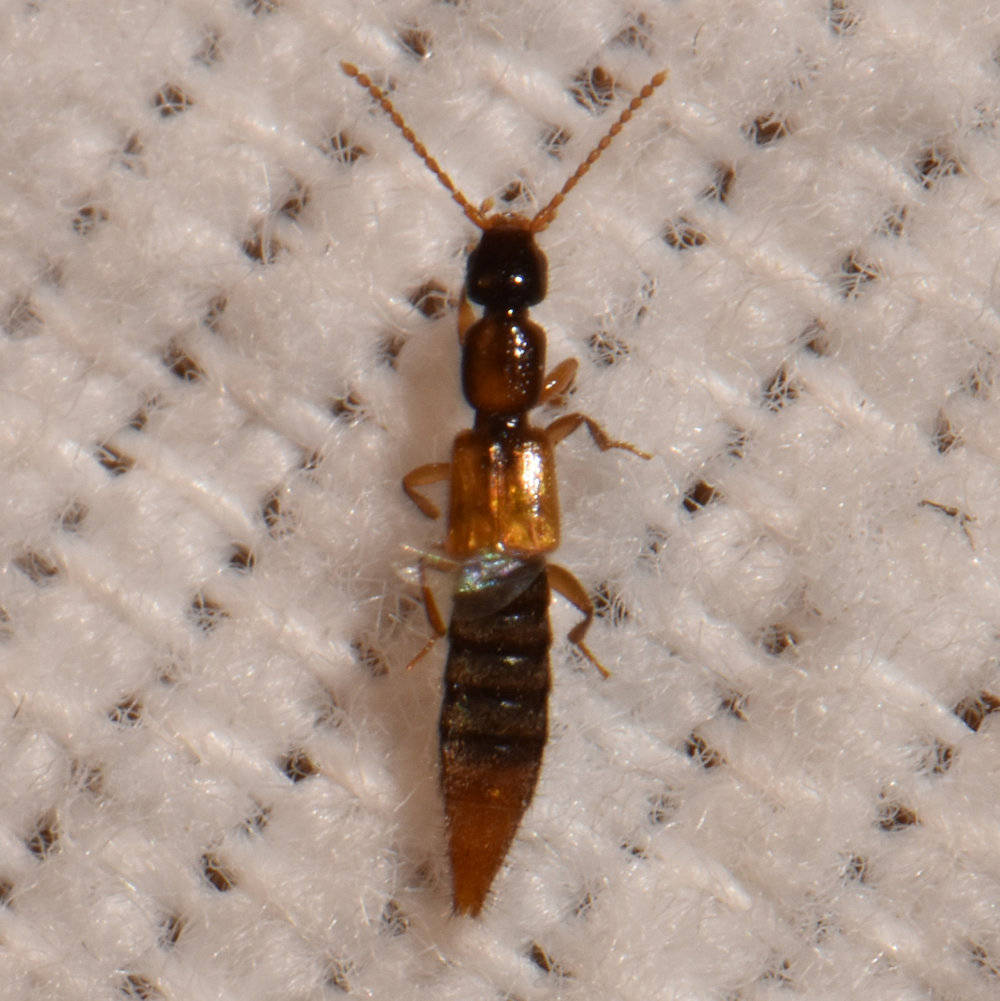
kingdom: Animalia
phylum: Arthropoda
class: Insecta
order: Coleoptera
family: Staphylinidae
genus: Pseudolathra
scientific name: Pseudolathra collaris
